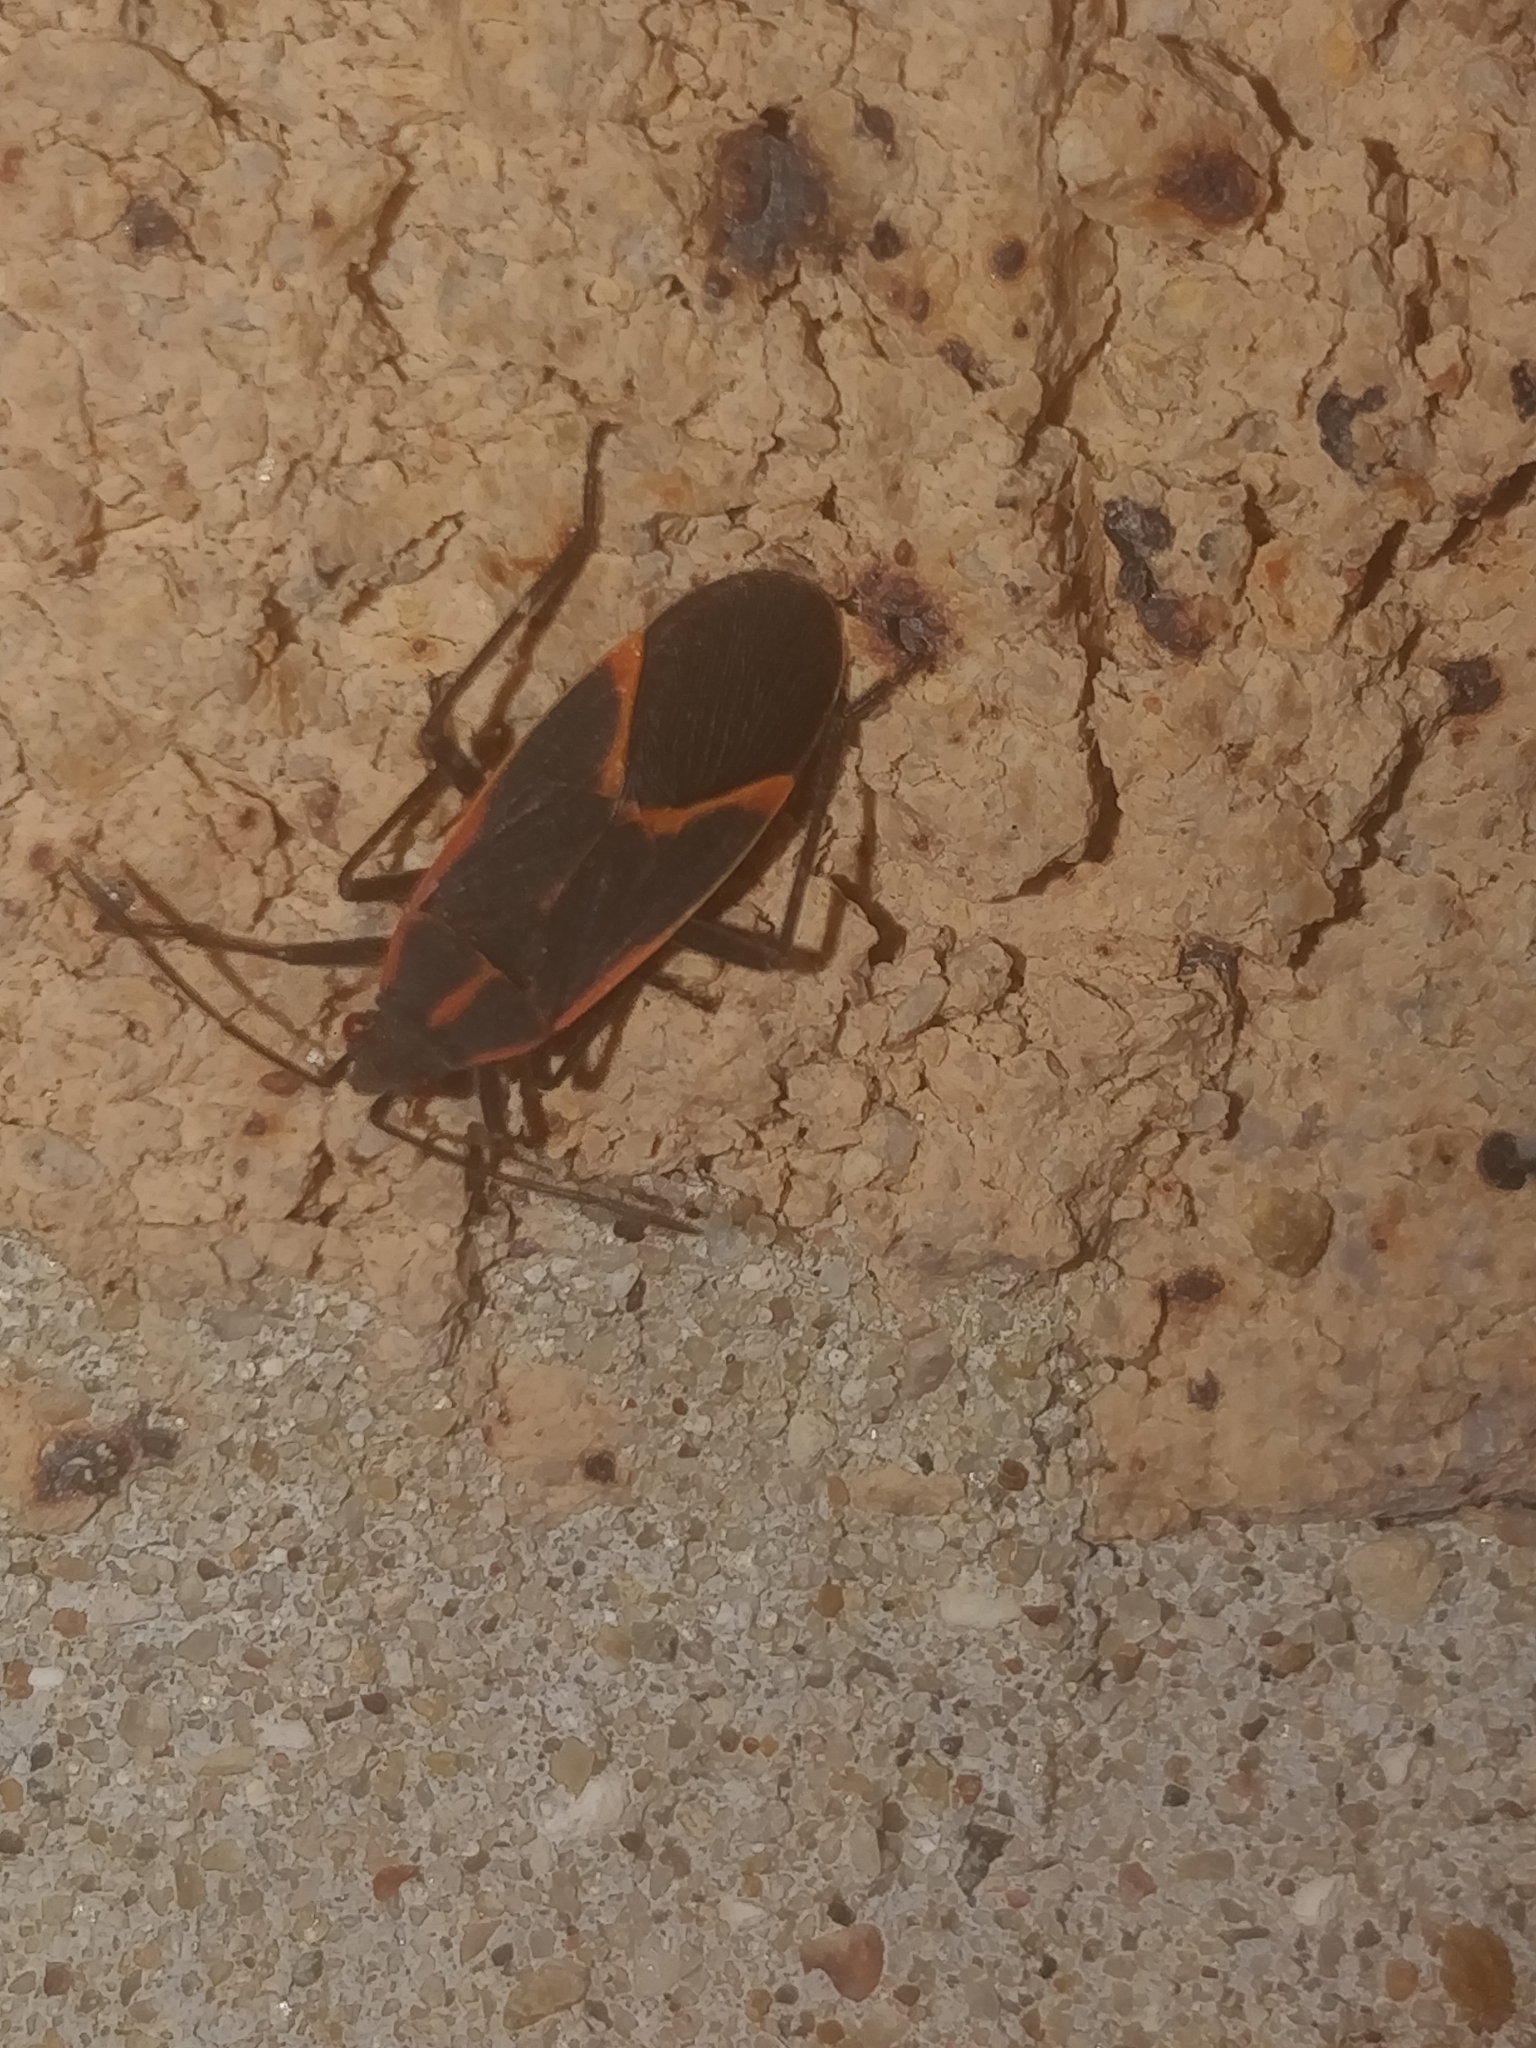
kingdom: Animalia
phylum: Arthropoda
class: Insecta
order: Hemiptera
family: Rhopalidae
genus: Boisea
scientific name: Boisea trivittata
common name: Boxelder bug
